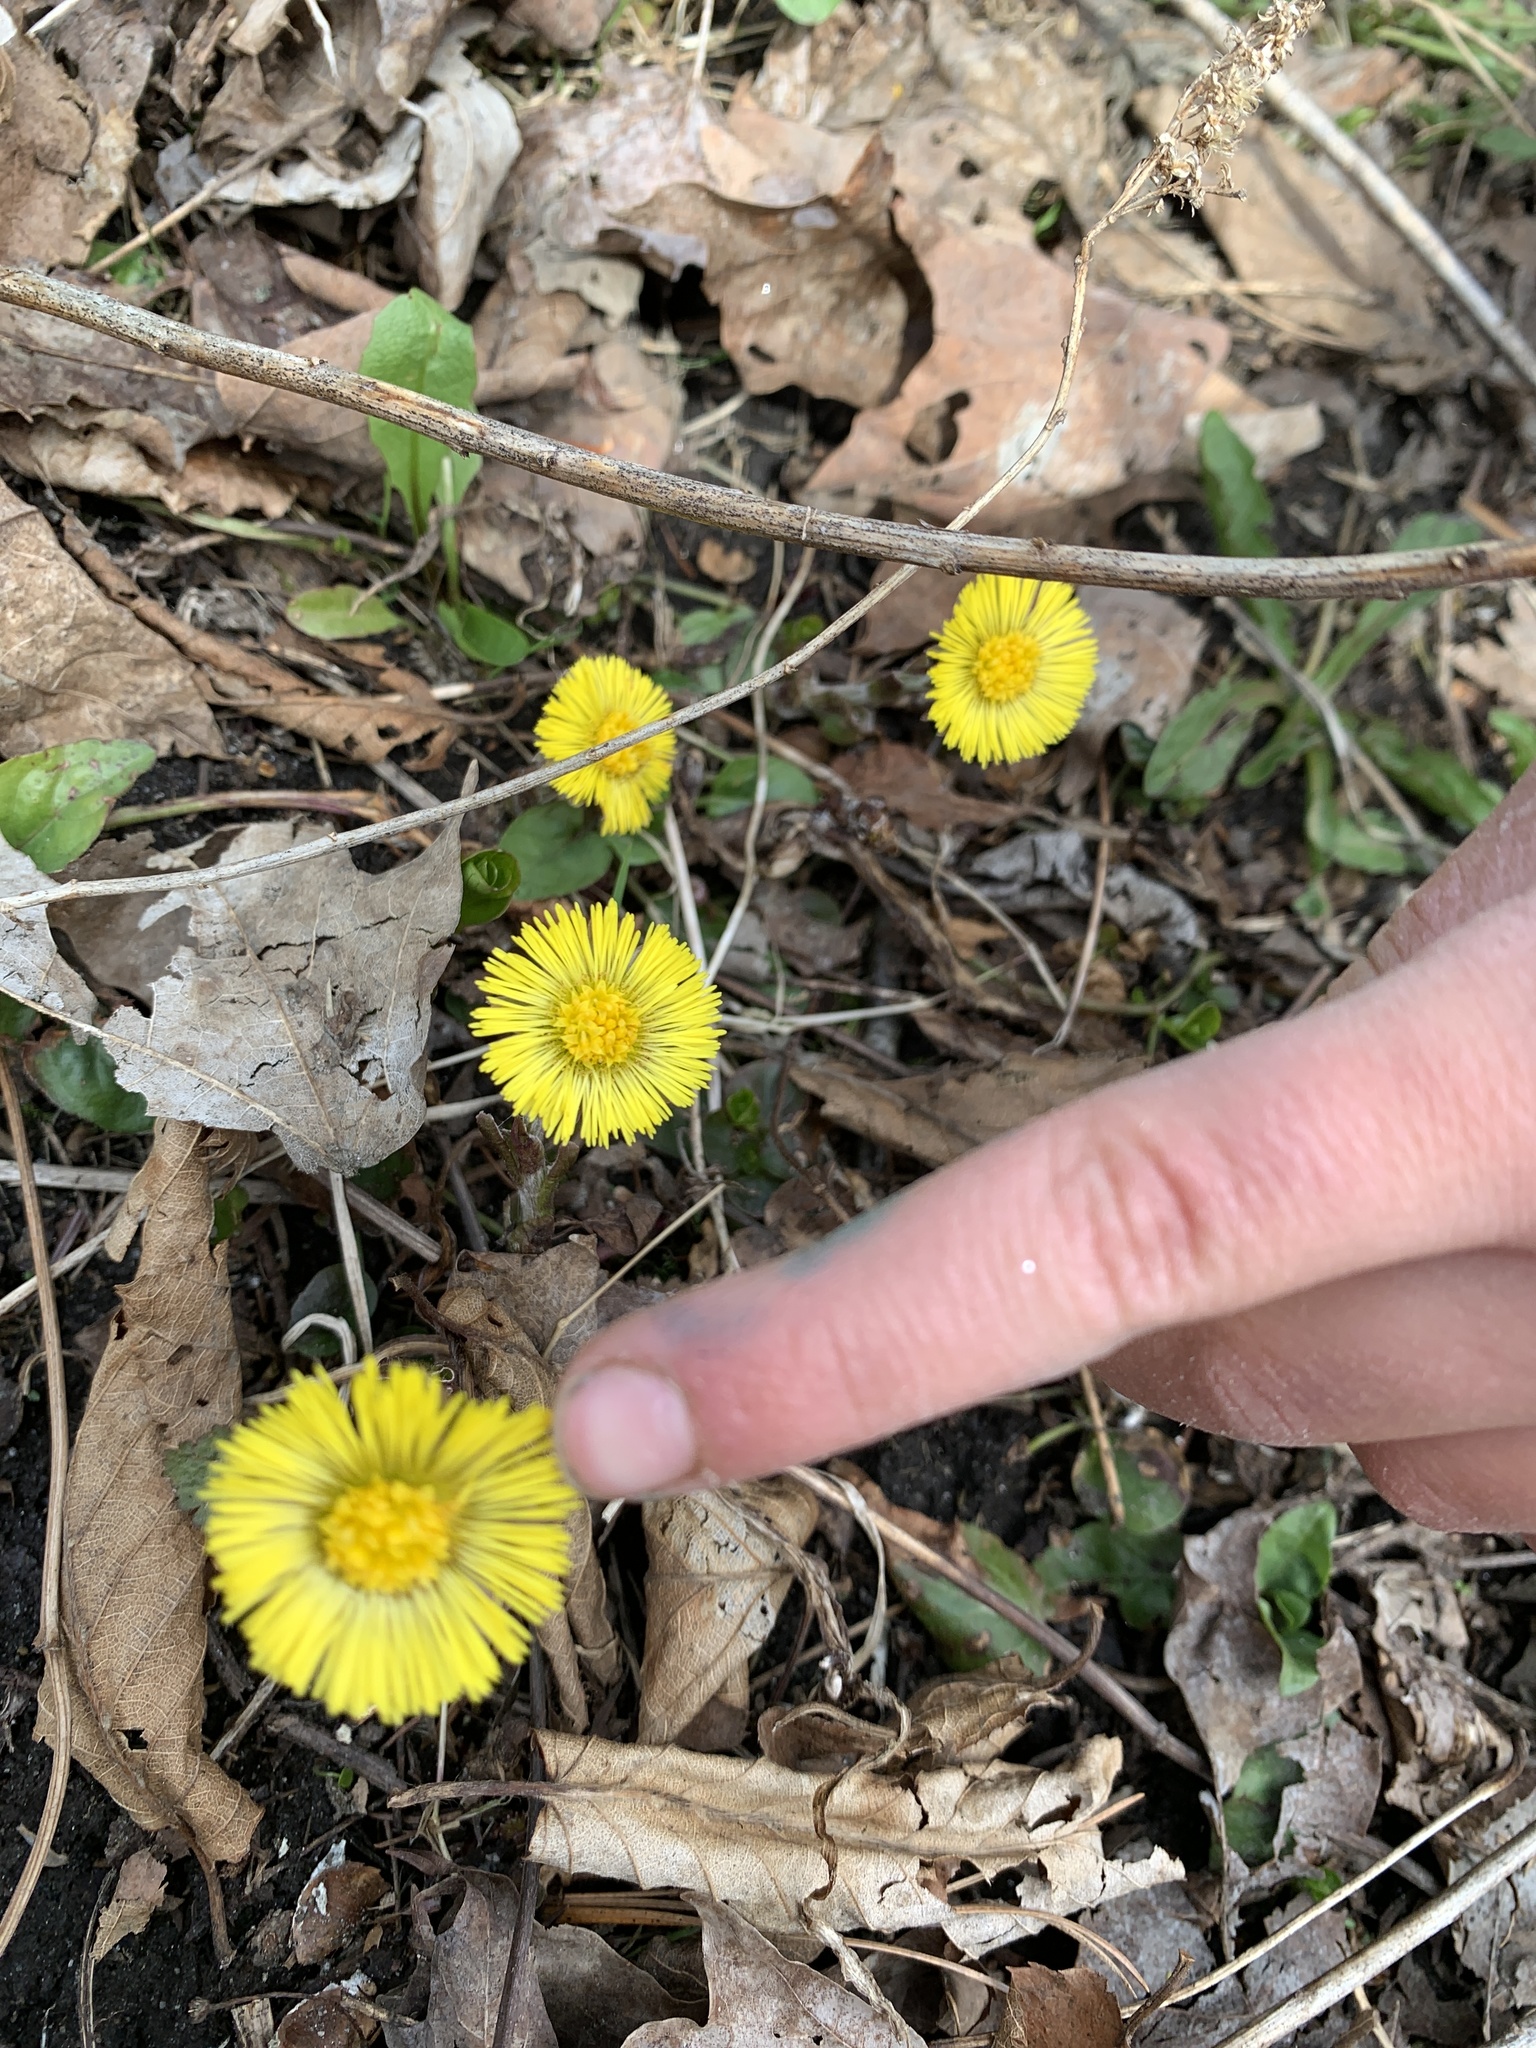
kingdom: Plantae
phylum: Tracheophyta
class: Magnoliopsida
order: Asterales
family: Asteraceae
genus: Tussilago
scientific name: Tussilago farfara
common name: Coltsfoot
